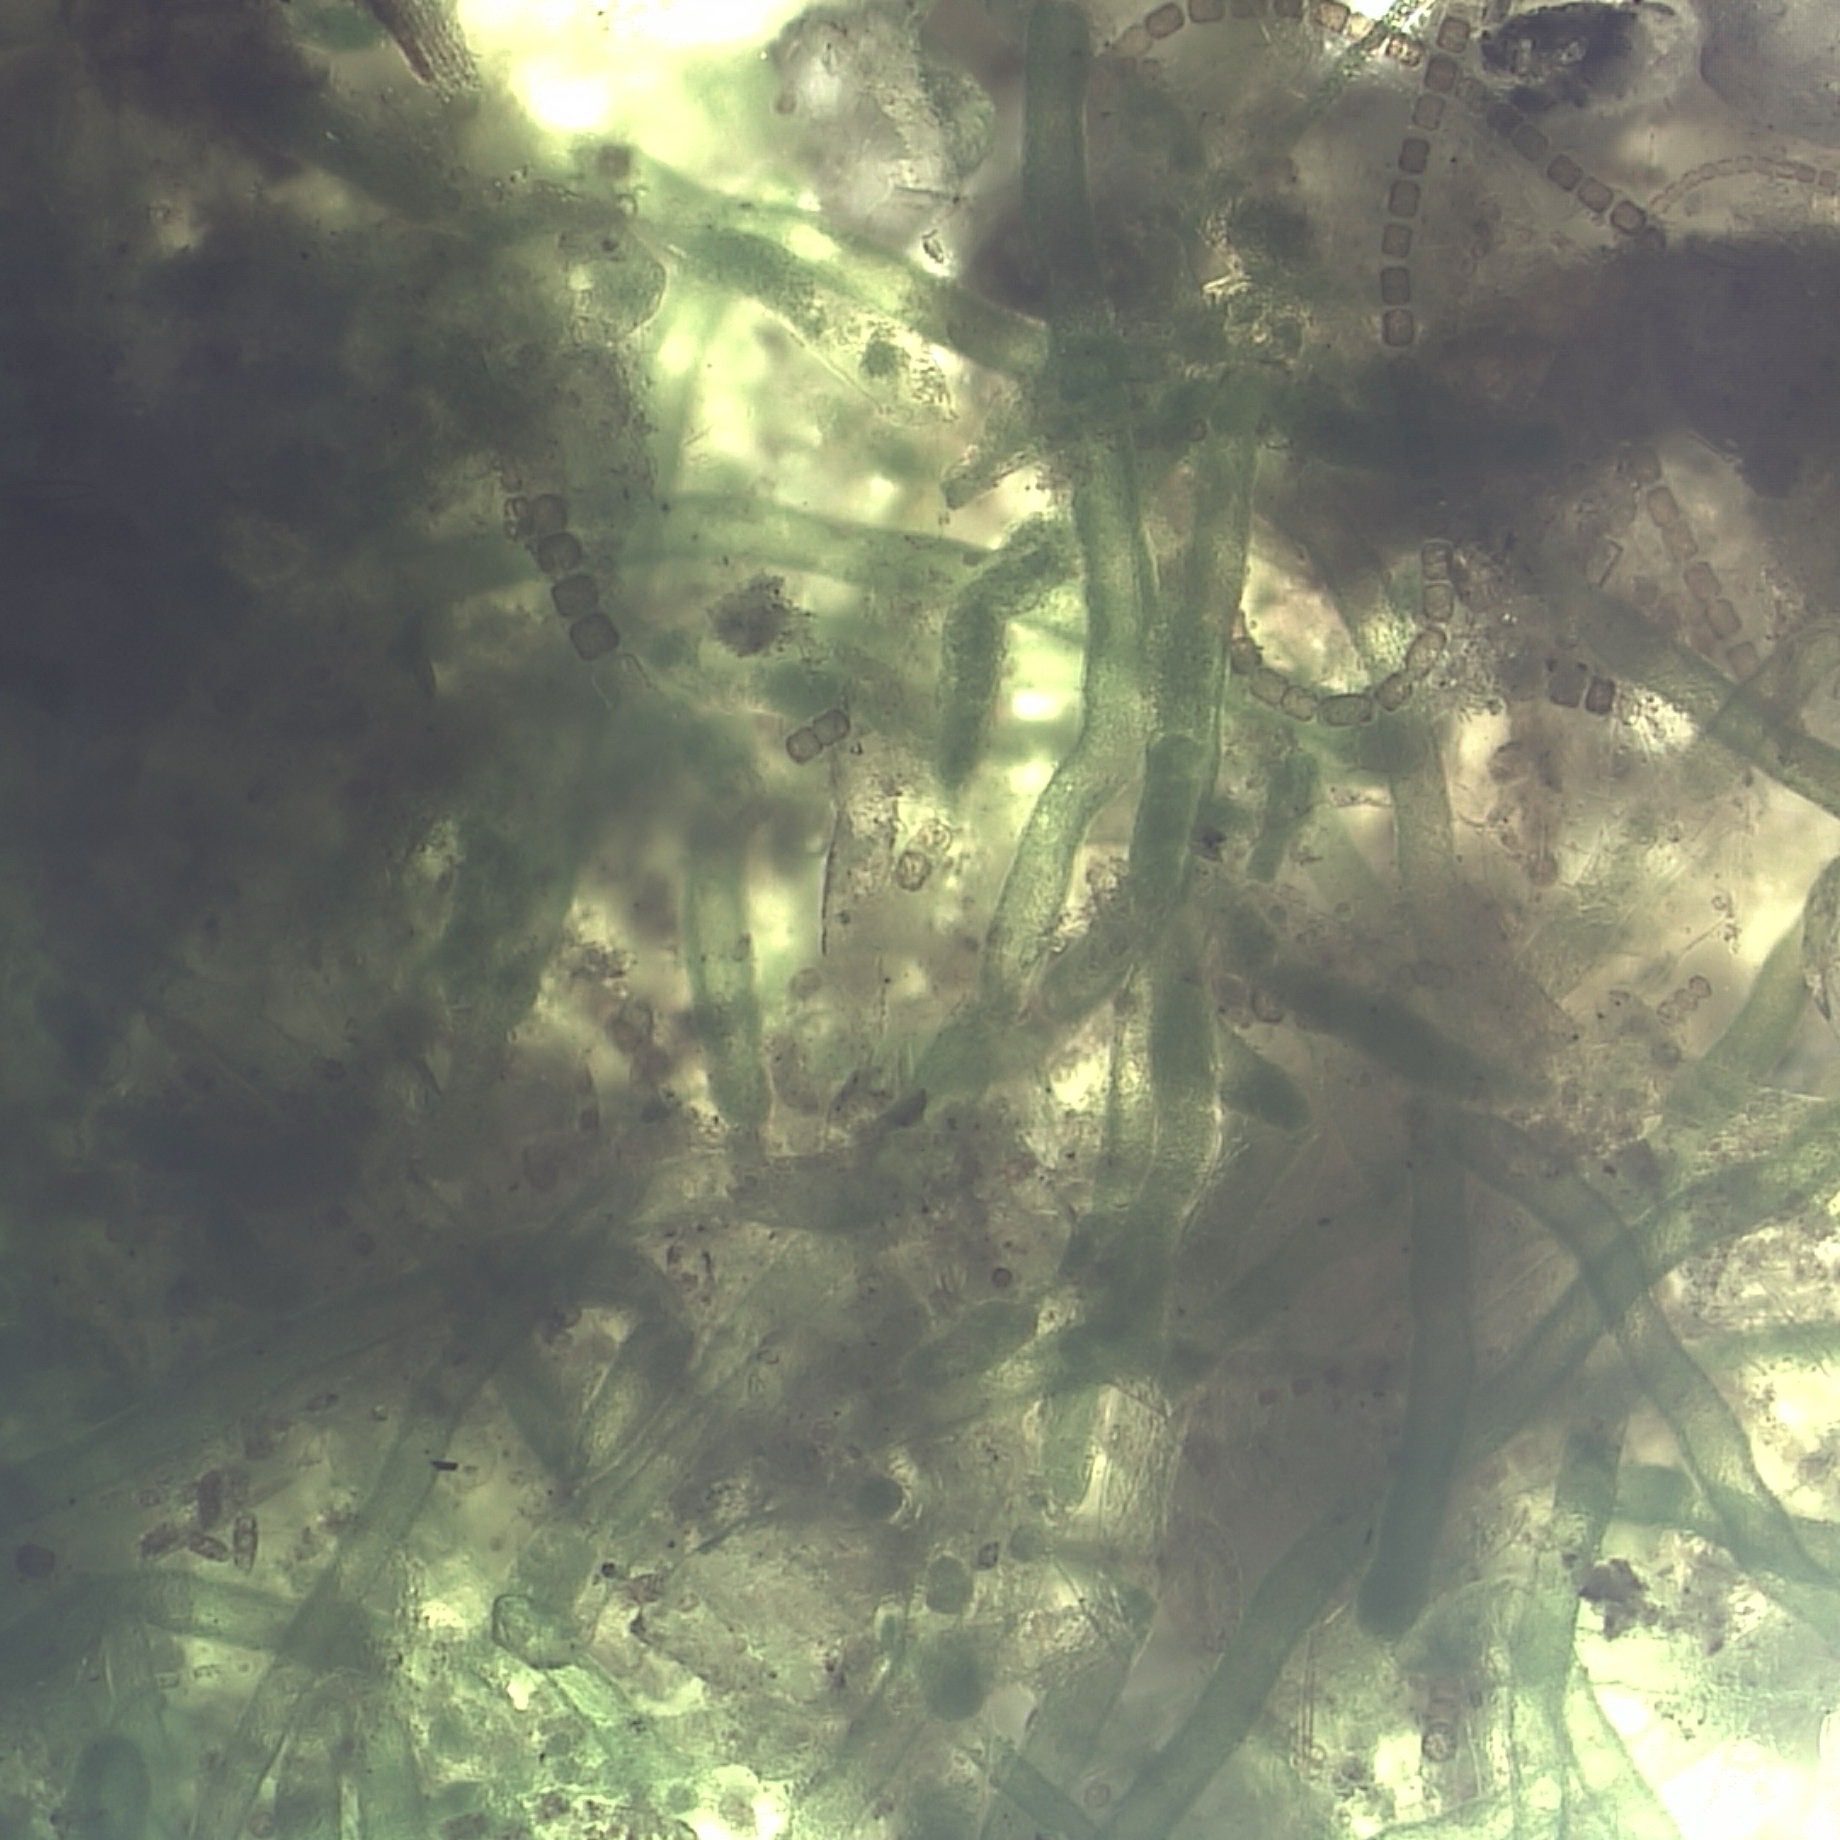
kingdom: Chromista
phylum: Ochrophyta
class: Xanthophyceae
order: Vaucheriales
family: Vaucheriaceae
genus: Vaucheria
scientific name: Vaucheria
